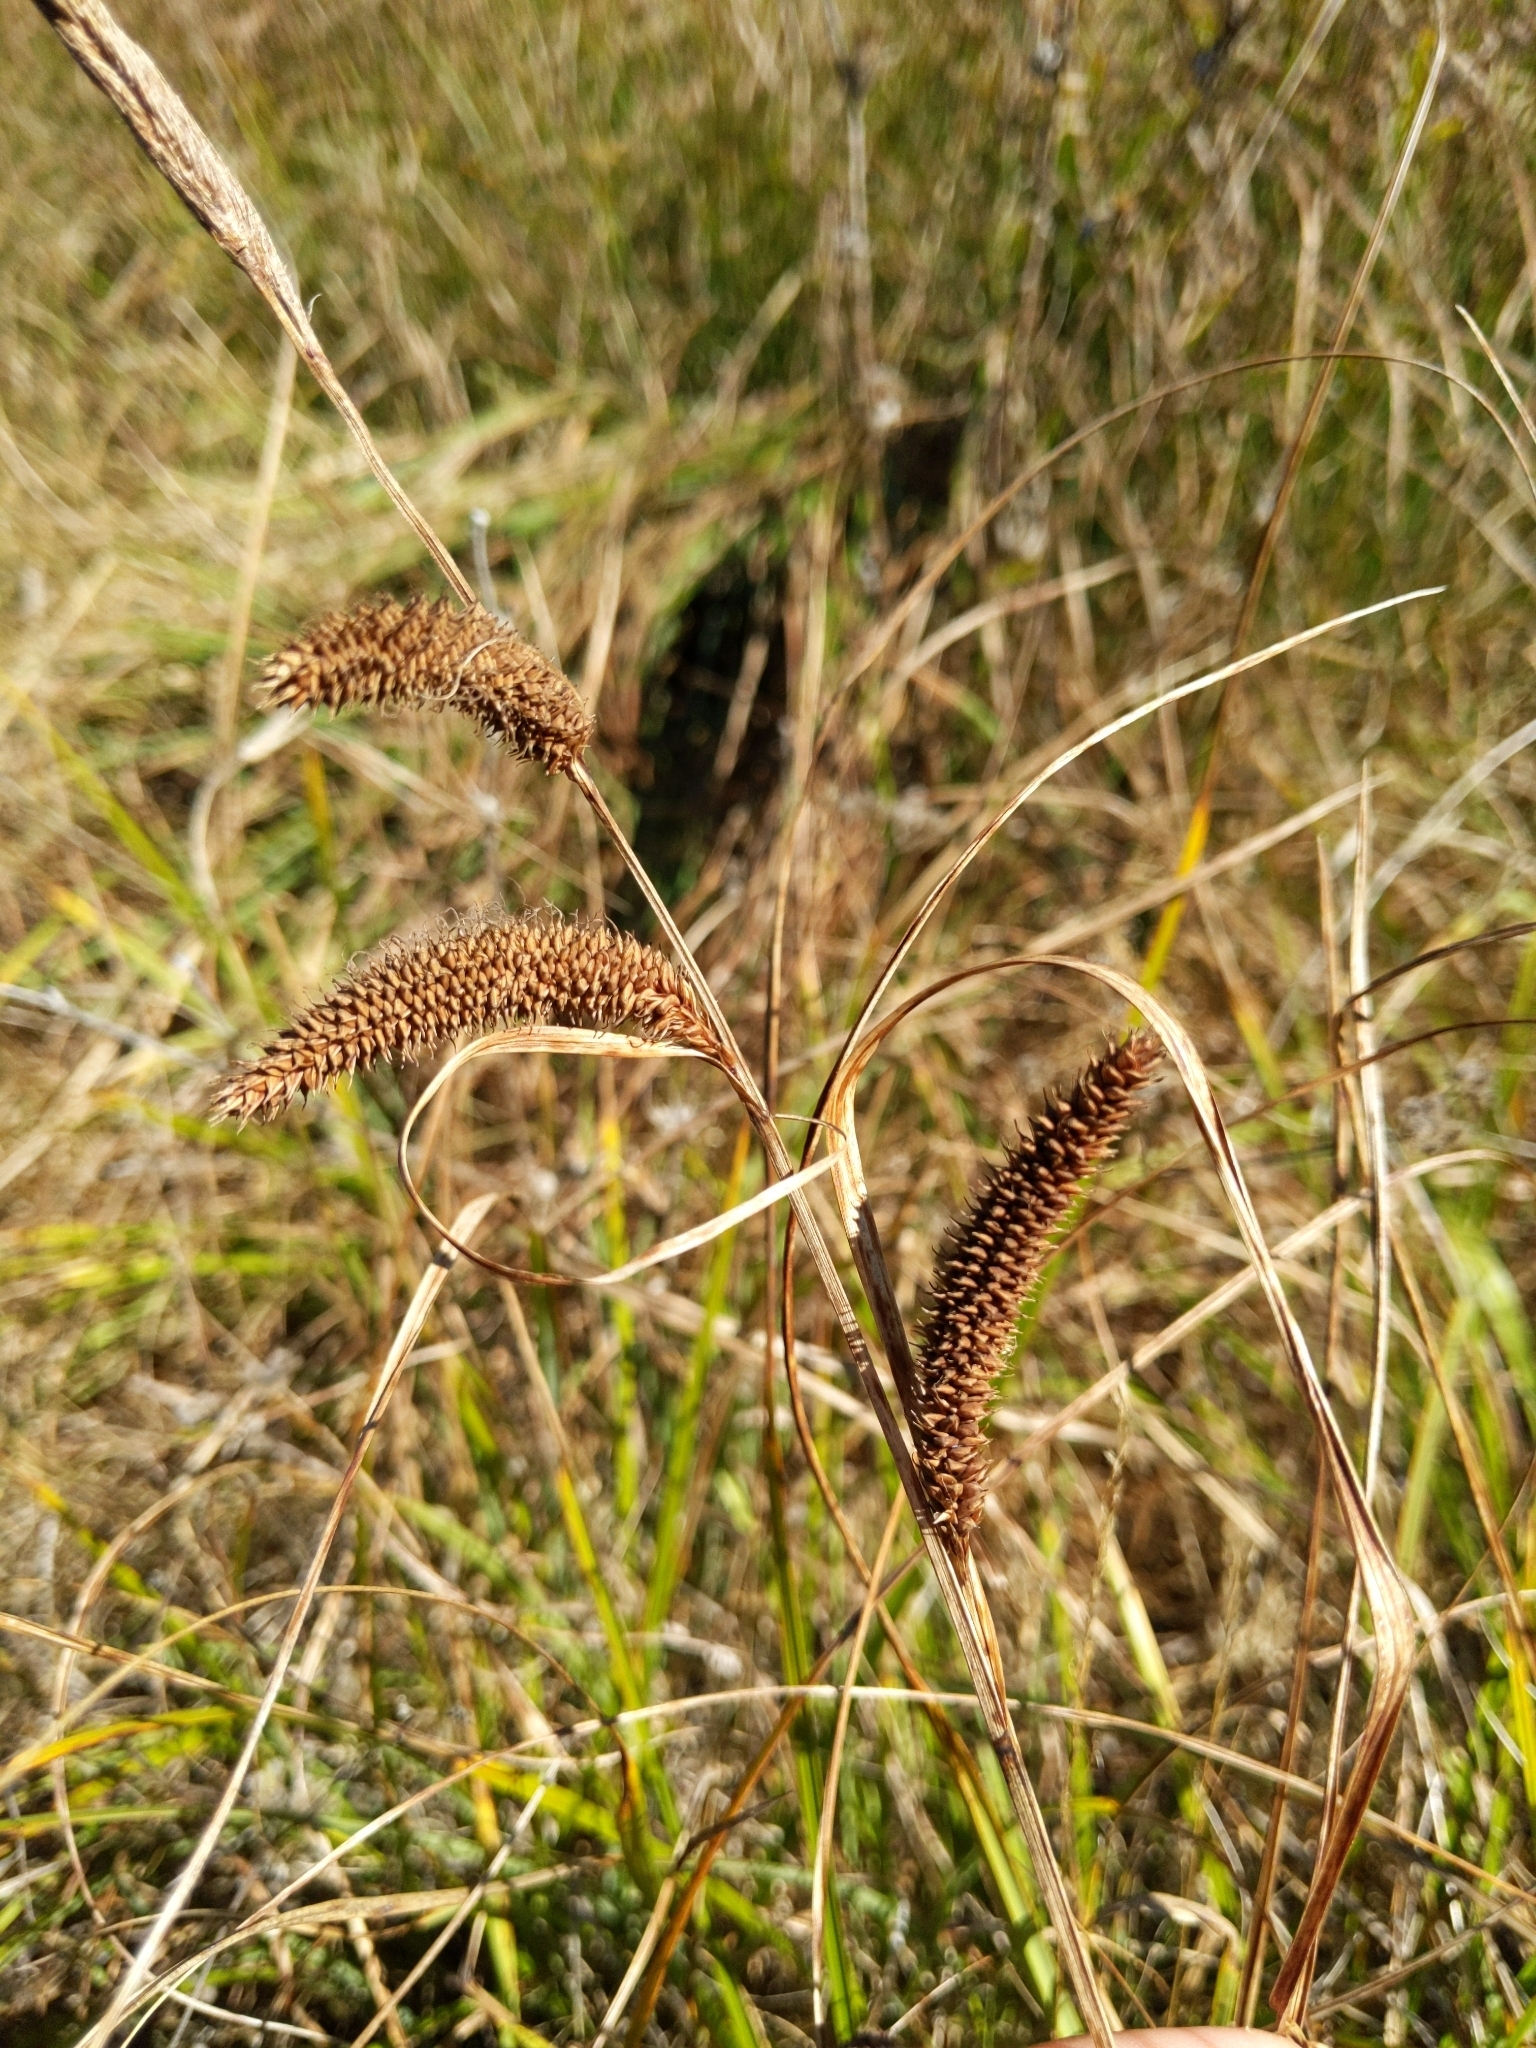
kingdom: Plantae
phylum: Tracheophyta
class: Liliopsida
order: Poales
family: Cyperaceae
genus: Carex
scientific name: Carex barbarae
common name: Santa barbara sedge
